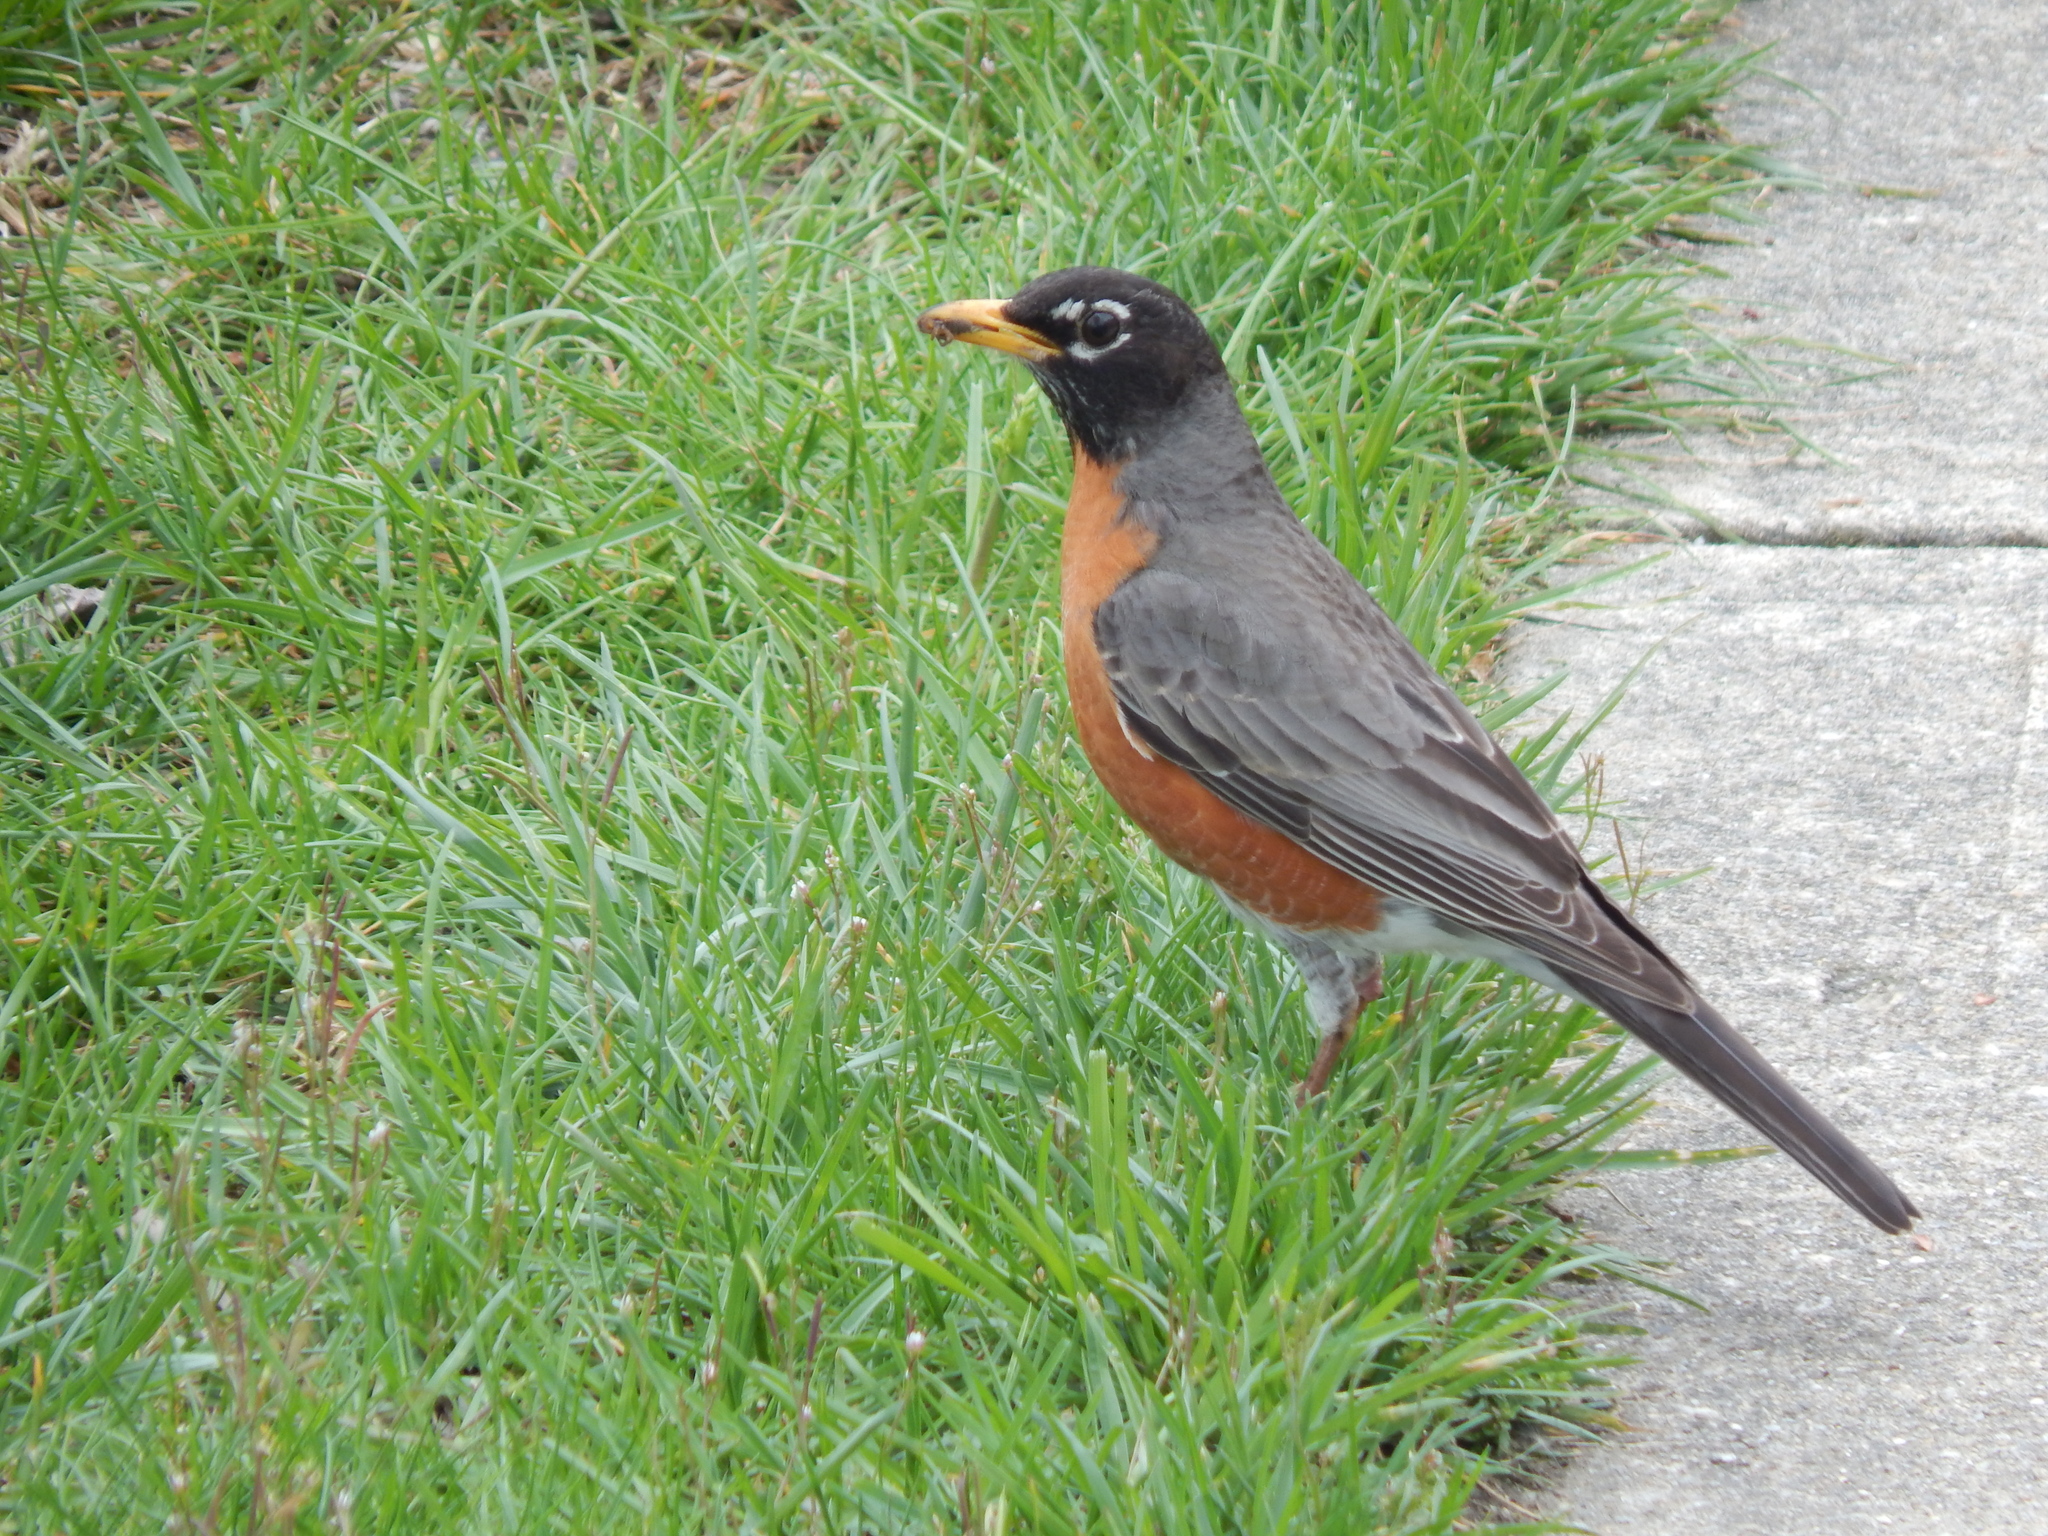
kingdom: Animalia
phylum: Chordata
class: Aves
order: Passeriformes
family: Turdidae
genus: Turdus
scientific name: Turdus migratorius
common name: American robin
